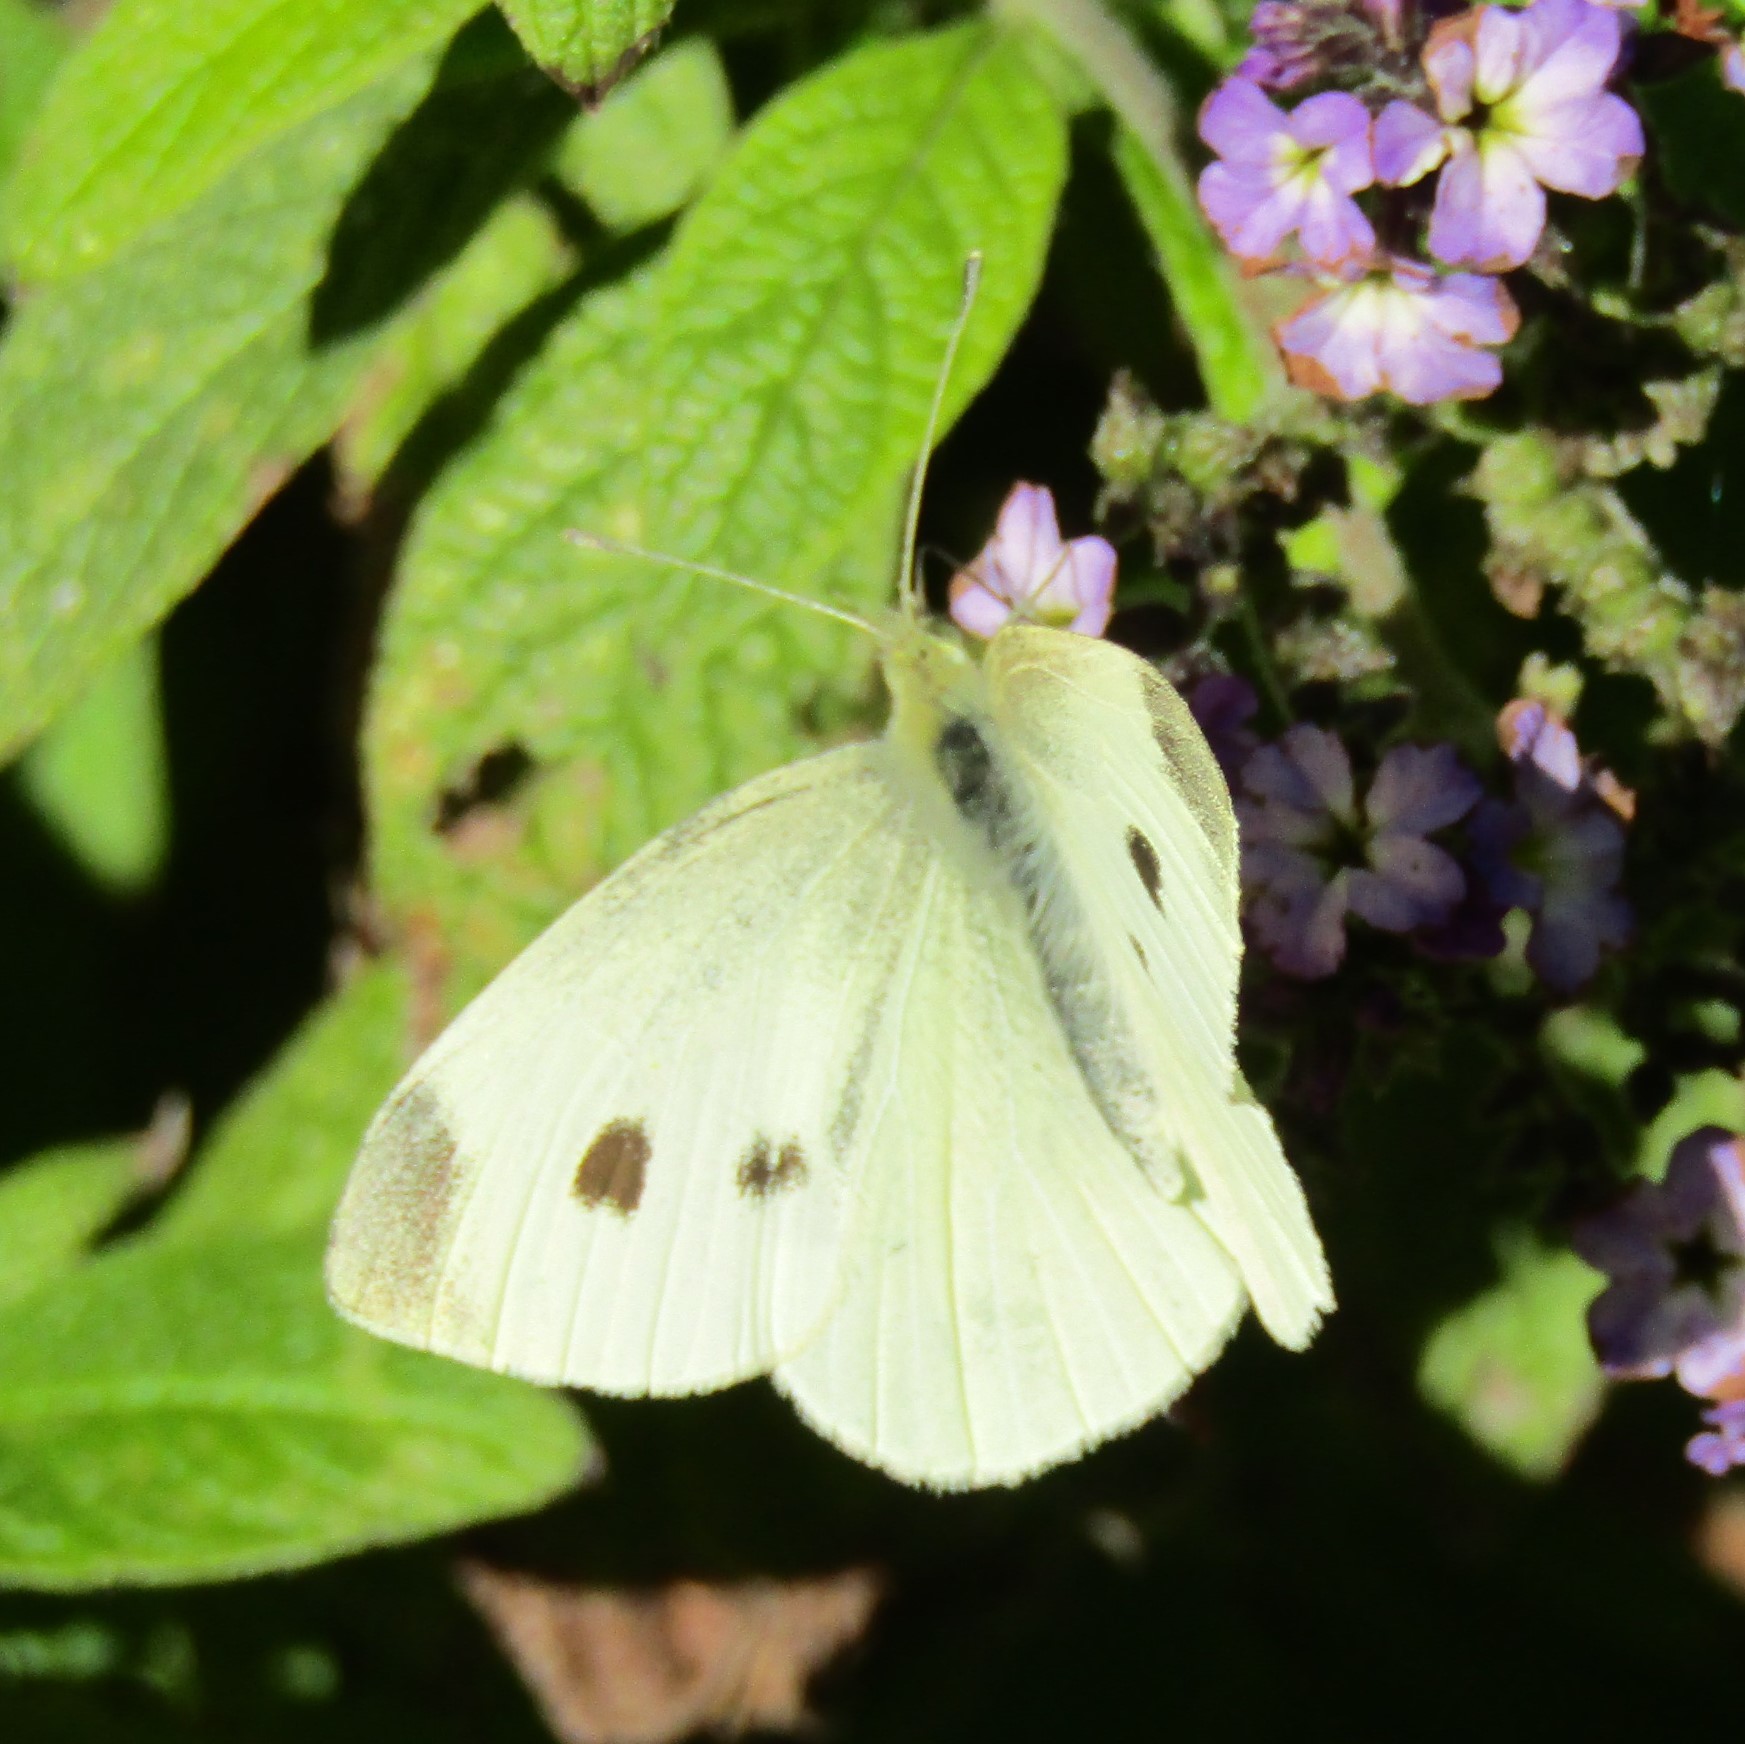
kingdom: Animalia
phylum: Arthropoda
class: Insecta
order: Lepidoptera
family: Pieridae
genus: Pieris
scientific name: Pieris rapae
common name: Small white
